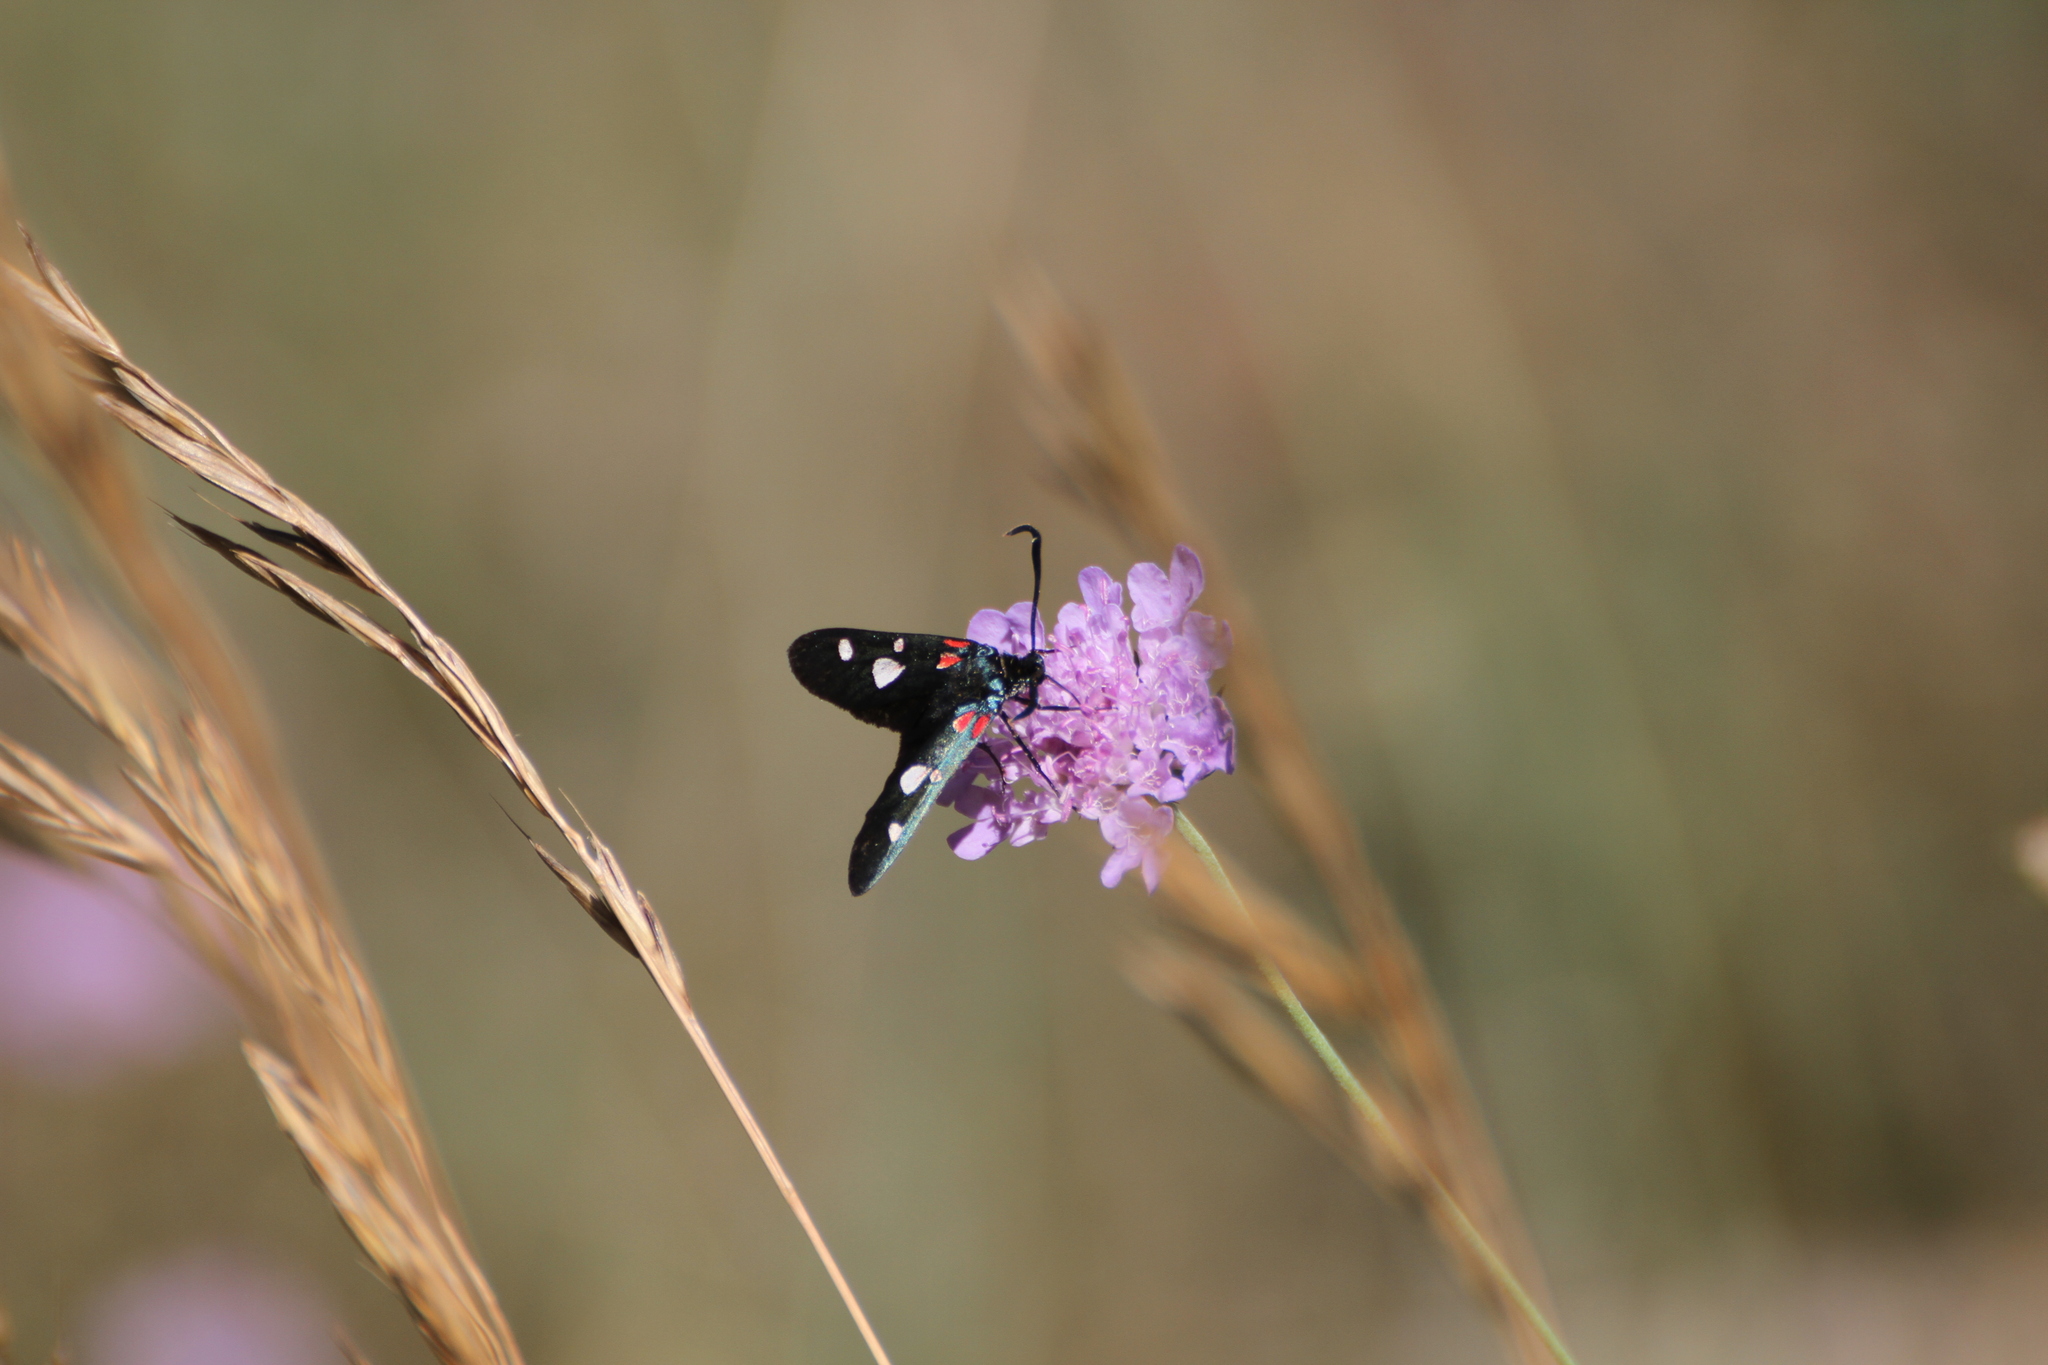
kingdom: Animalia
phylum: Arthropoda
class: Insecta
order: Lepidoptera
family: Zygaenidae
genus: Zygaena
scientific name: Zygaena ephialtes
